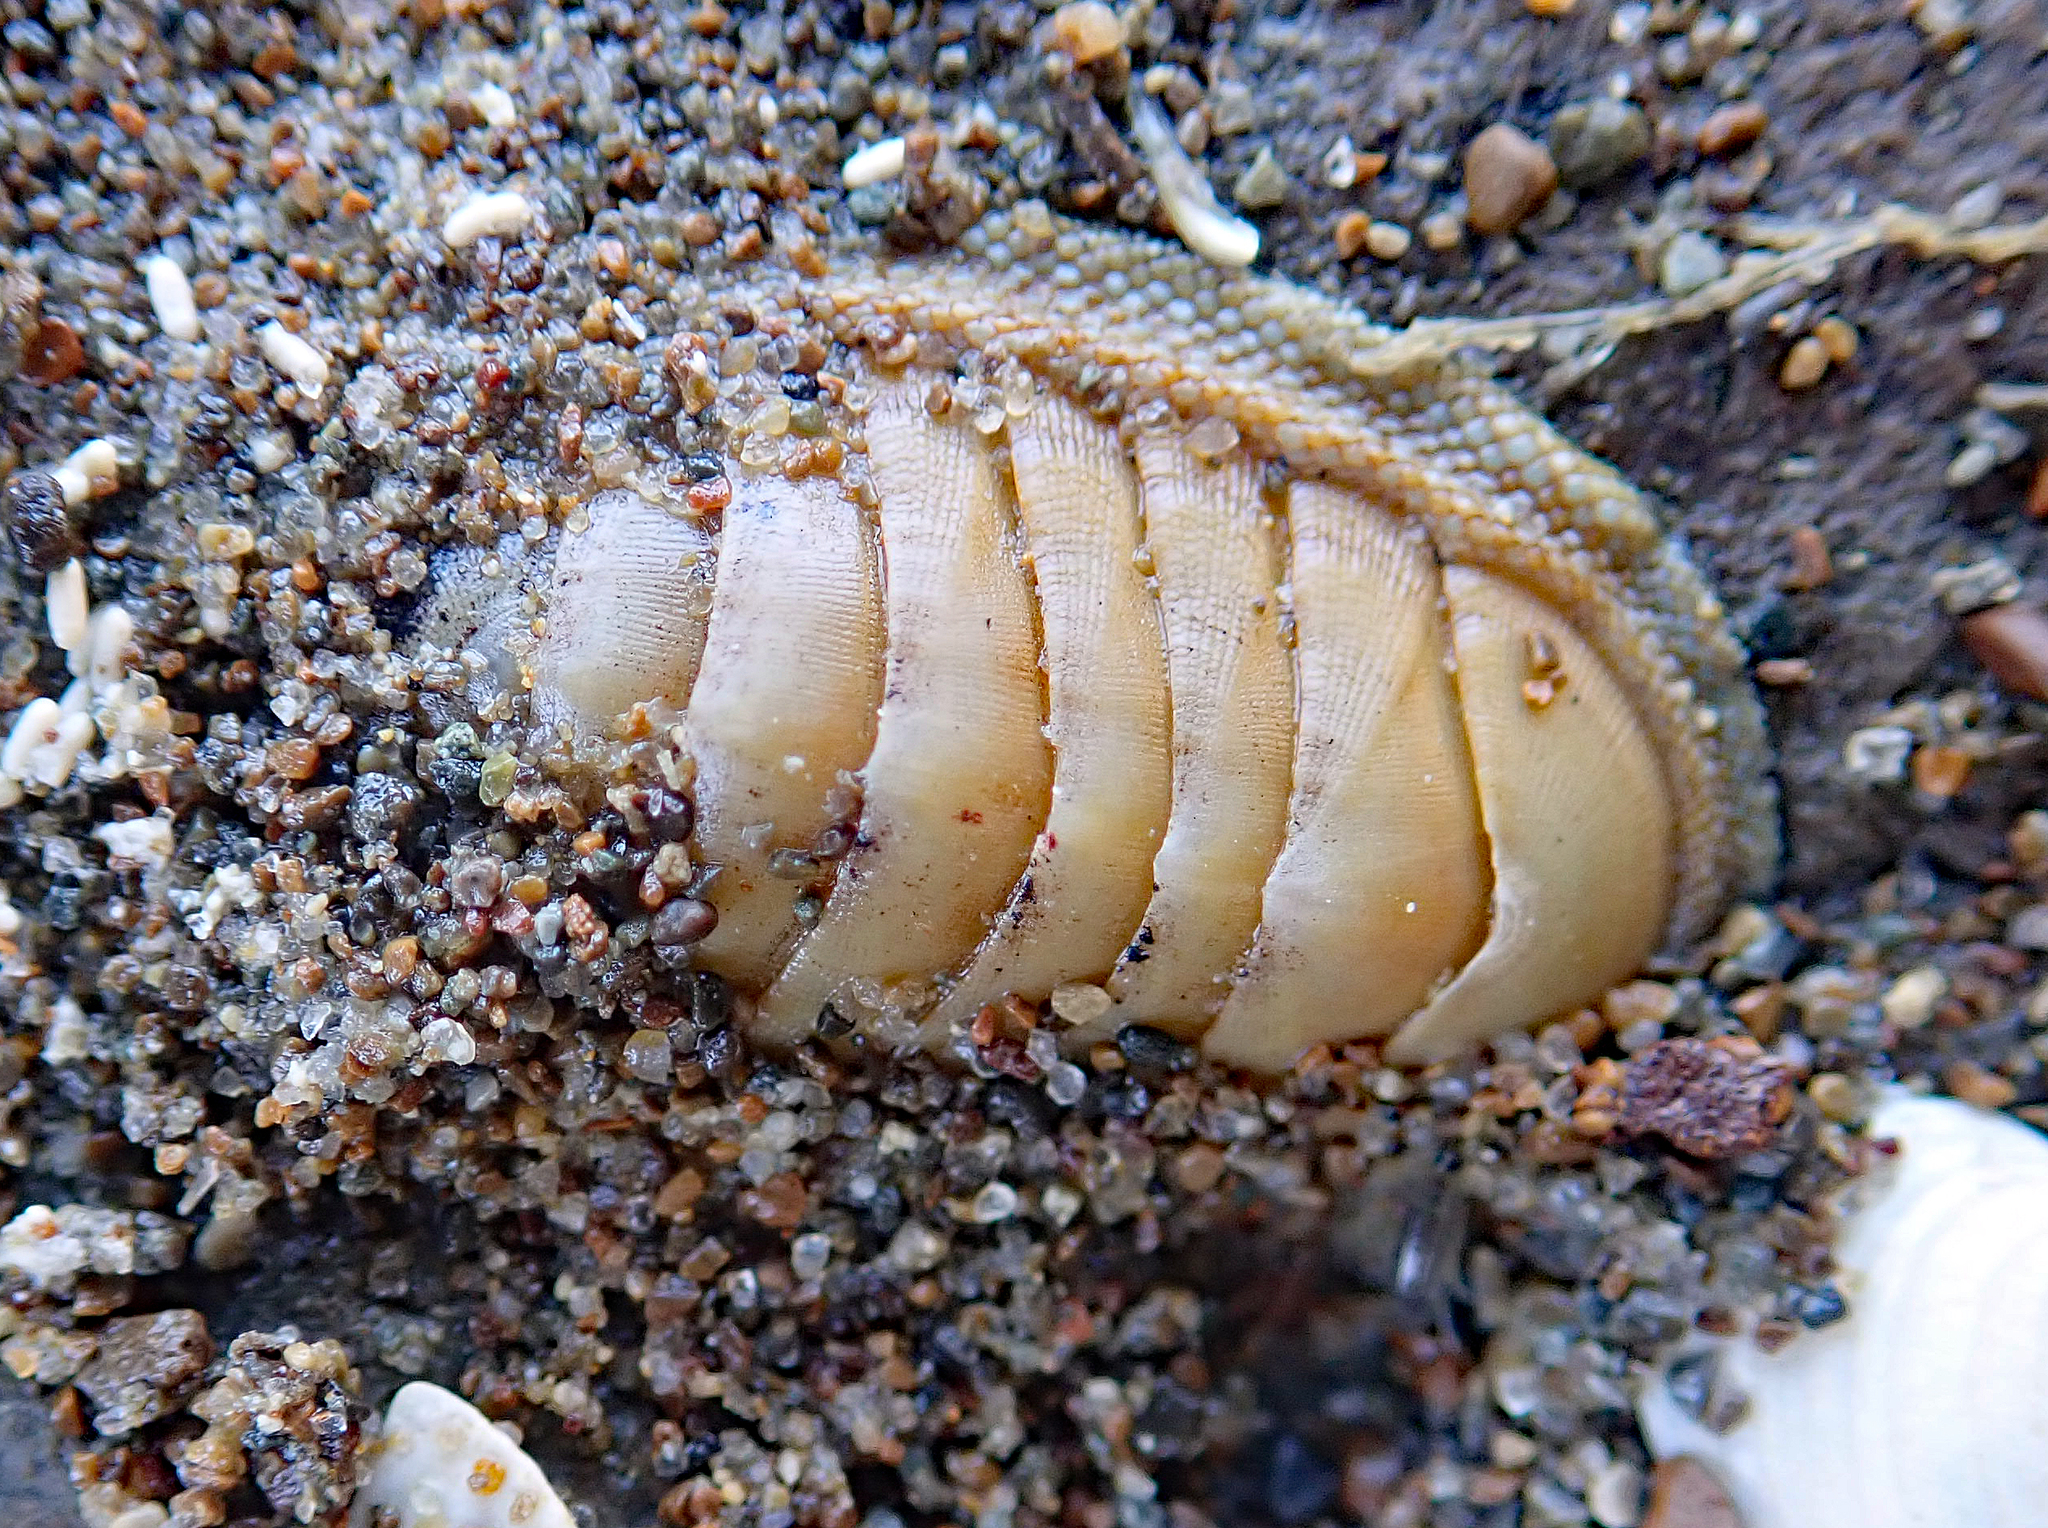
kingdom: Animalia
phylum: Mollusca
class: Polyplacophora
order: Chitonida
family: Chitonidae
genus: Chiton
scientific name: Chiton glaucus
